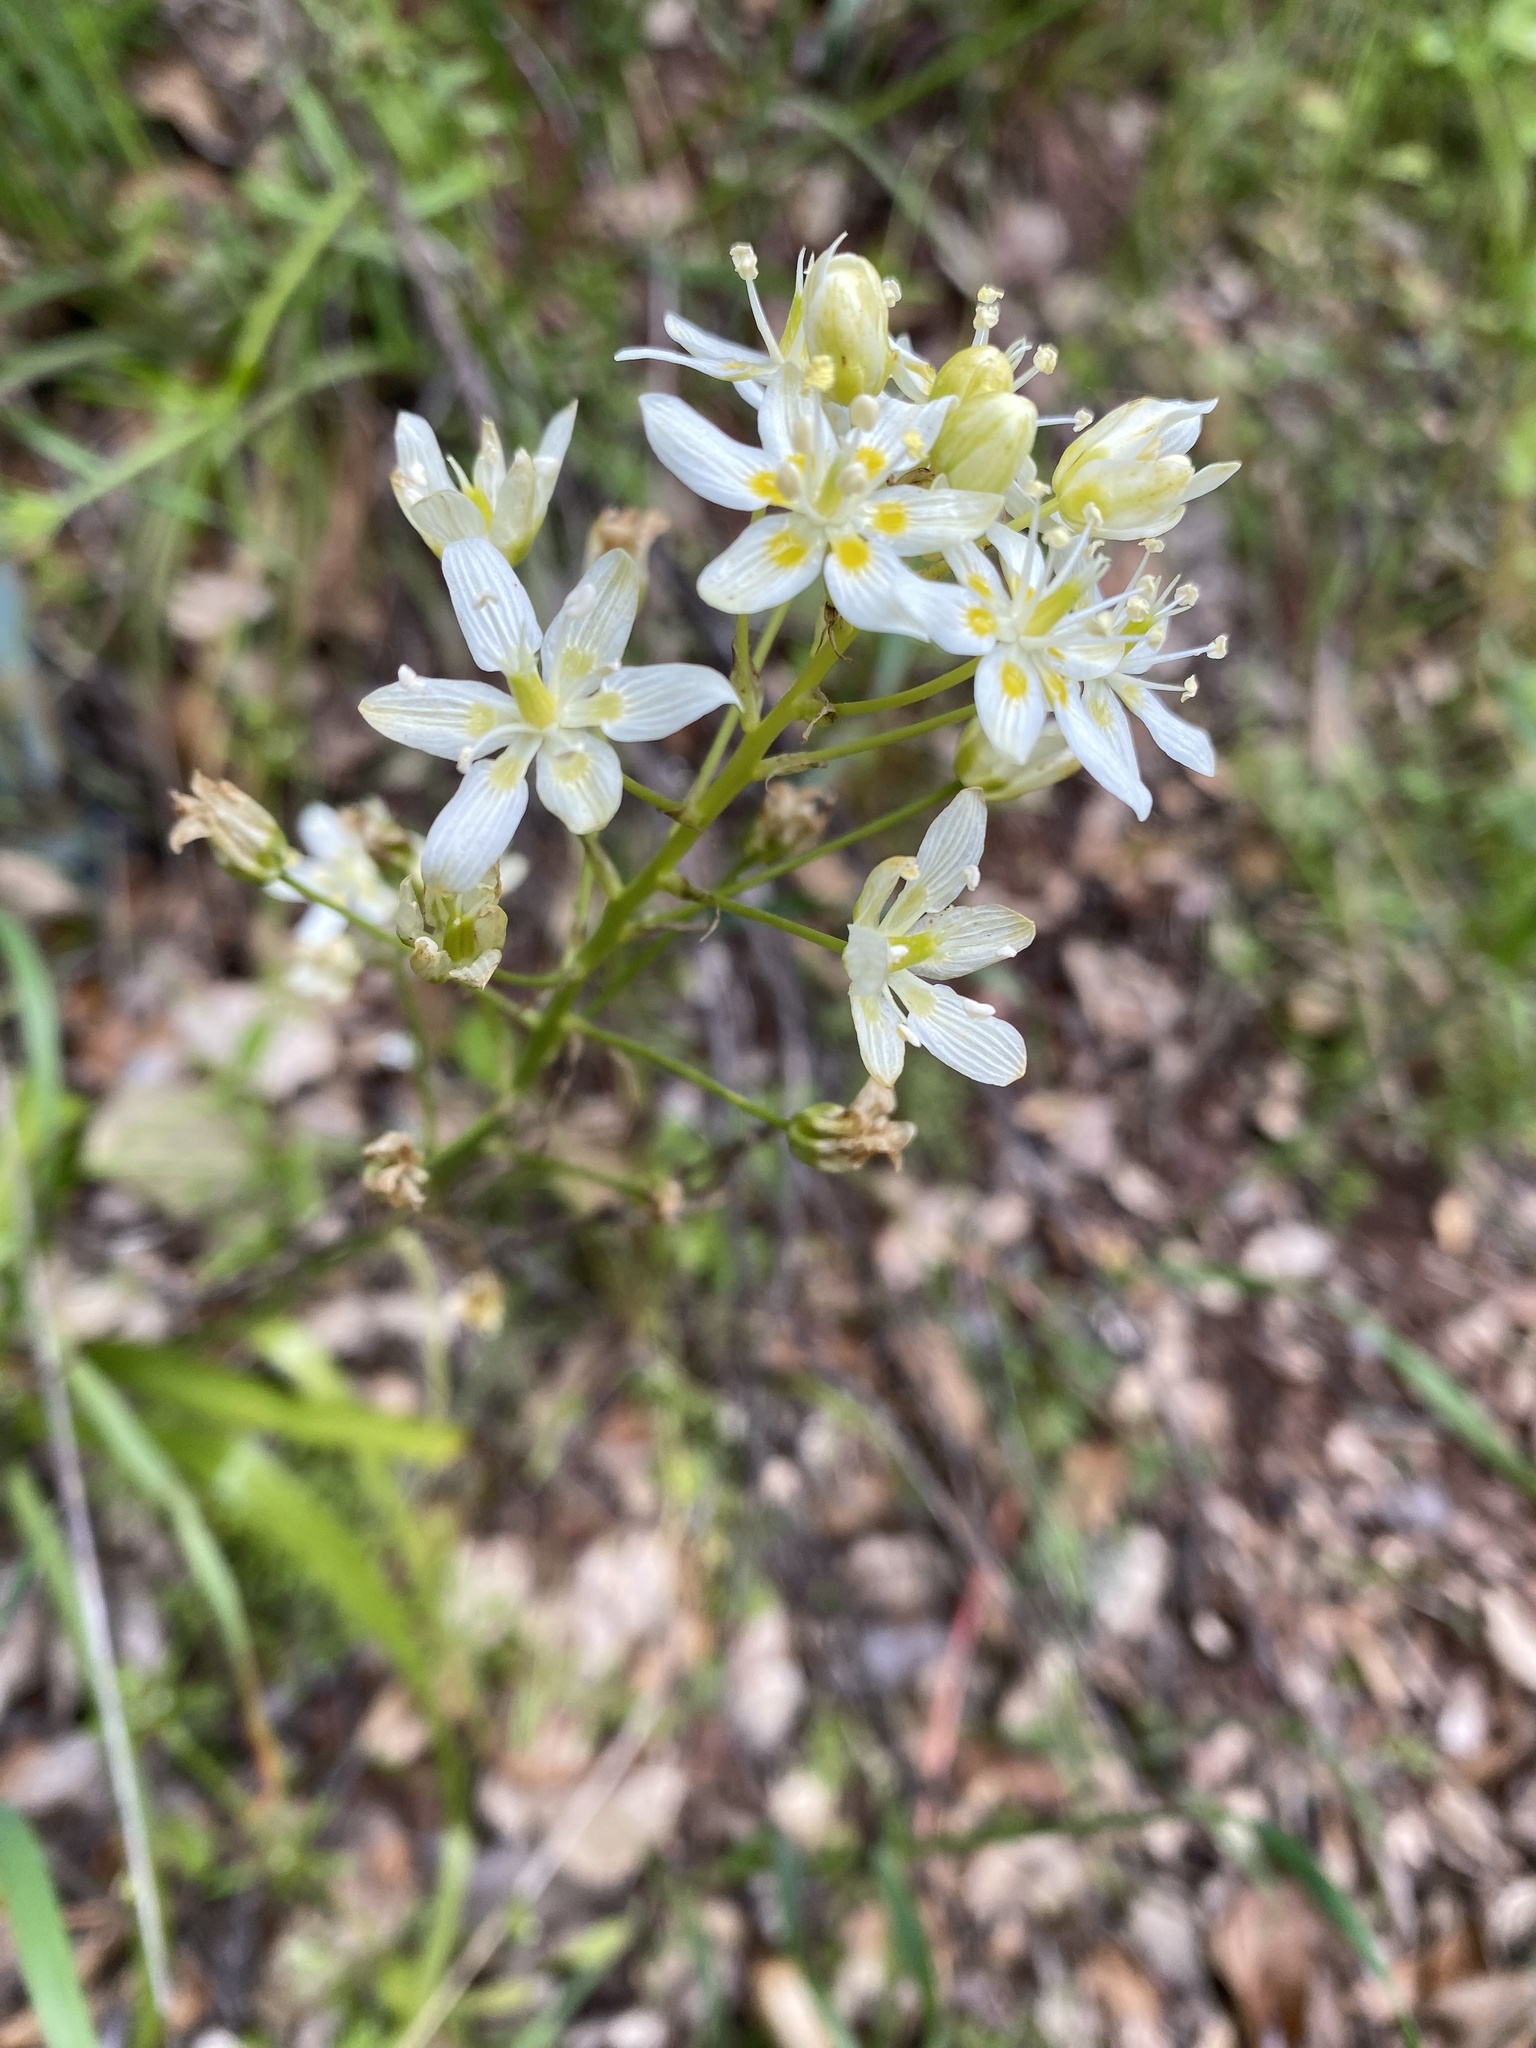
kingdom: Plantae
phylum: Tracheophyta
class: Liliopsida
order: Liliales
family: Melanthiaceae
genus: Toxicoscordion
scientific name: Toxicoscordion fremontii
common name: Fremont's death camas
